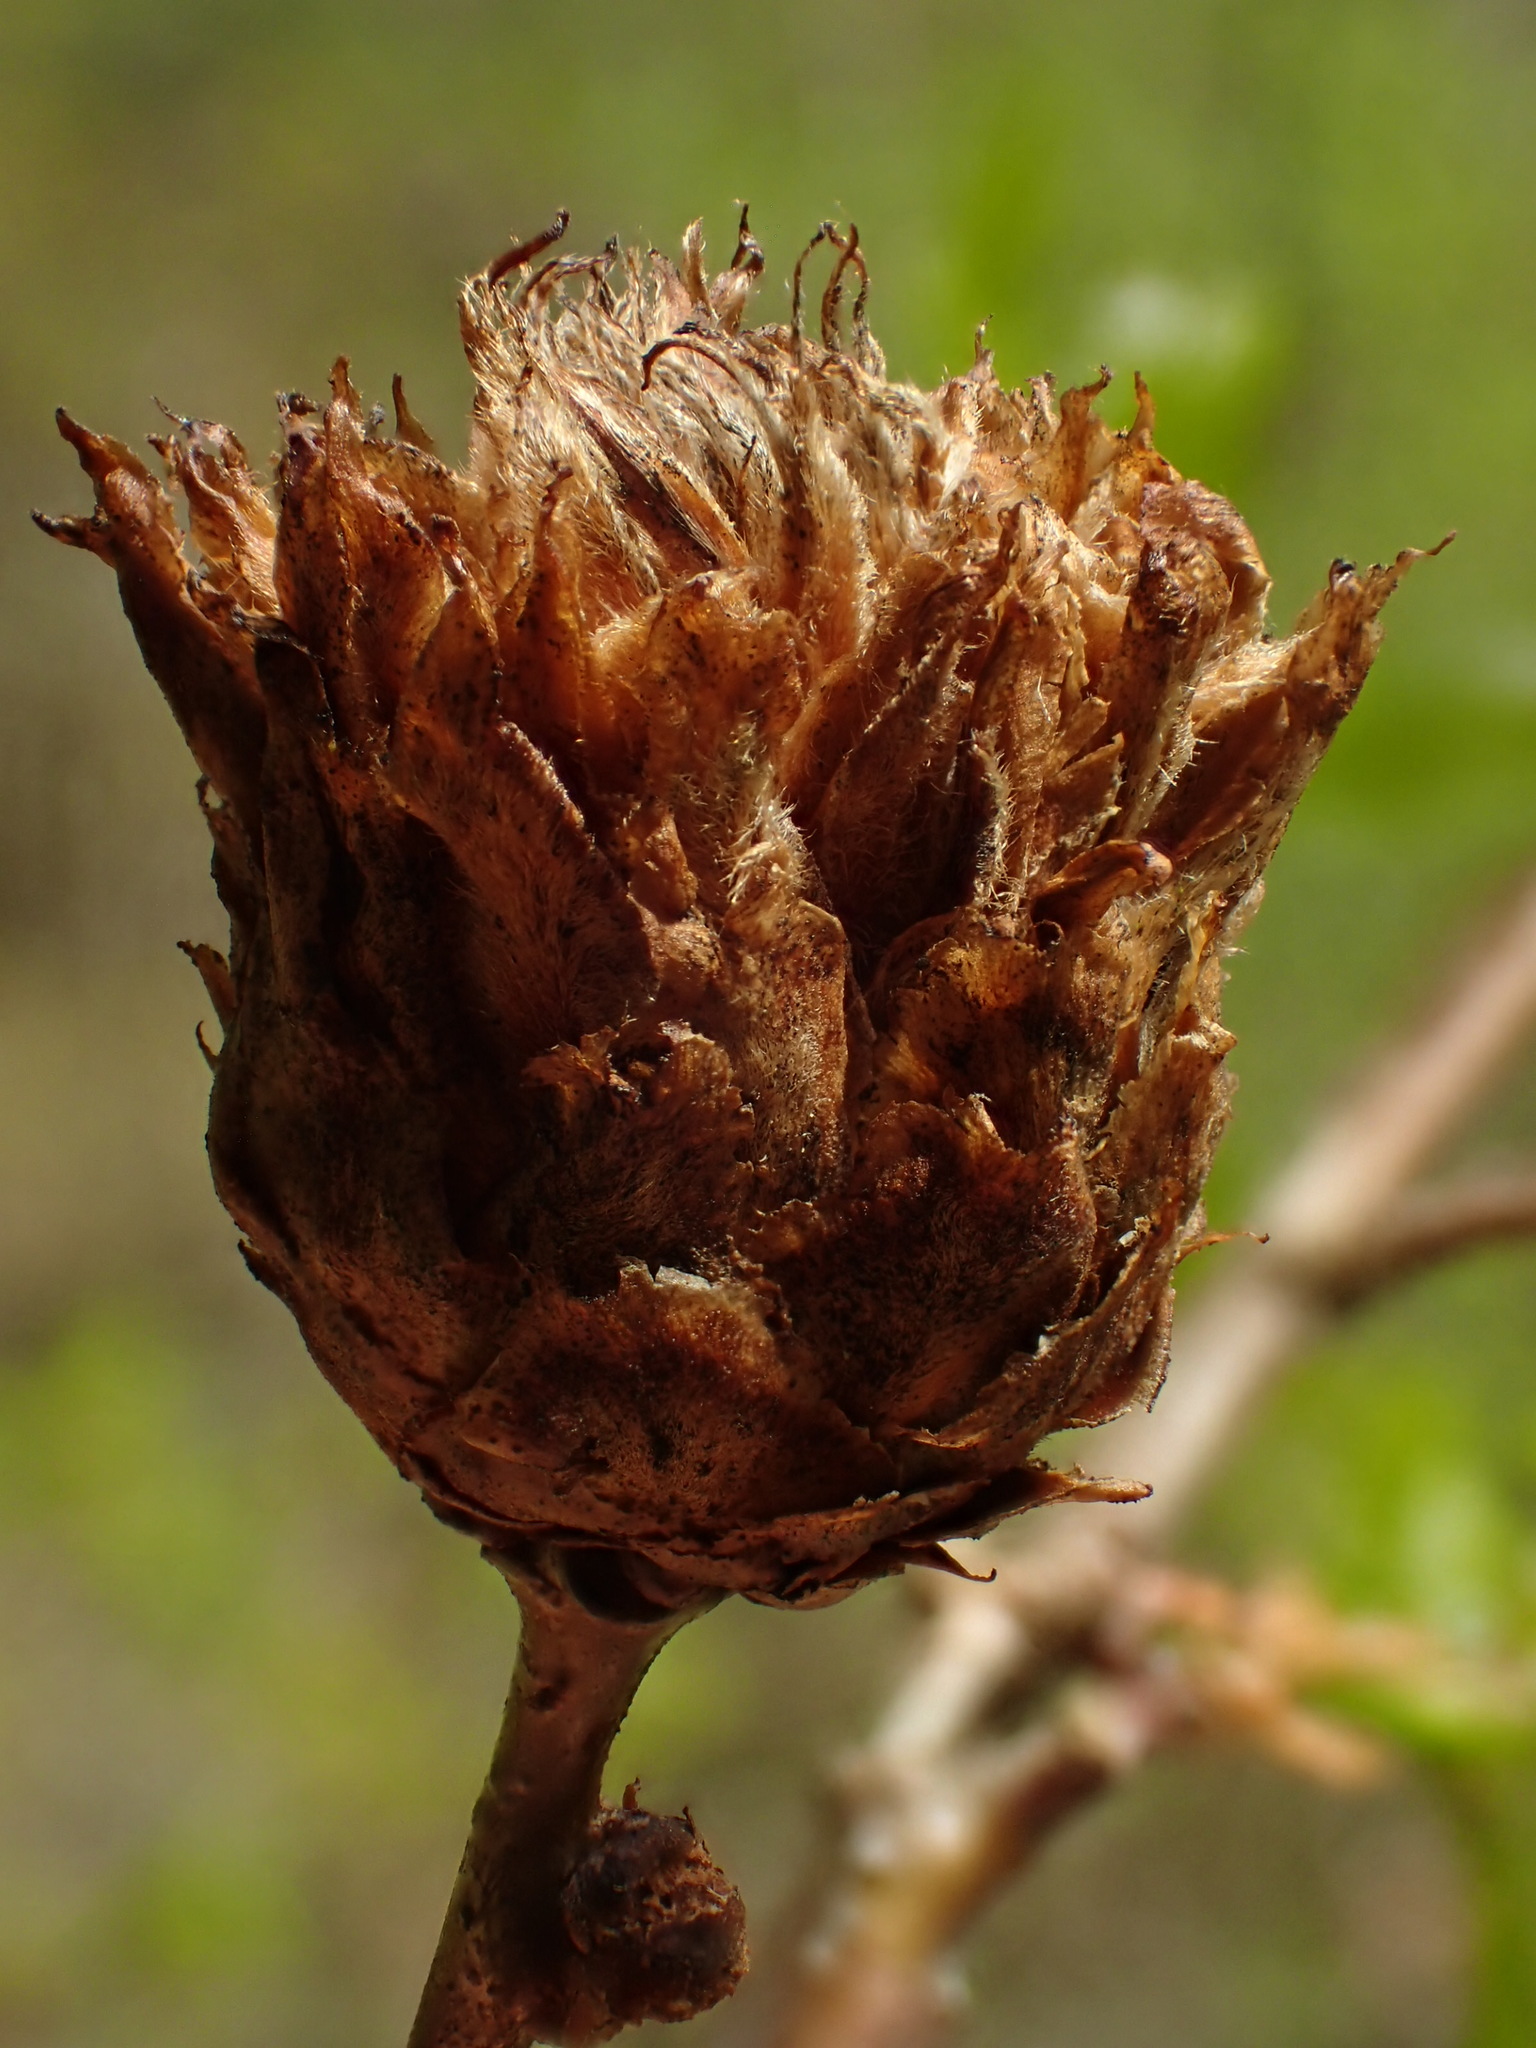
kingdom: Animalia
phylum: Arthropoda
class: Insecta
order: Hymenoptera
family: Cynipidae
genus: Andricus
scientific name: Andricus foecundatrix
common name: Artichoke gall
